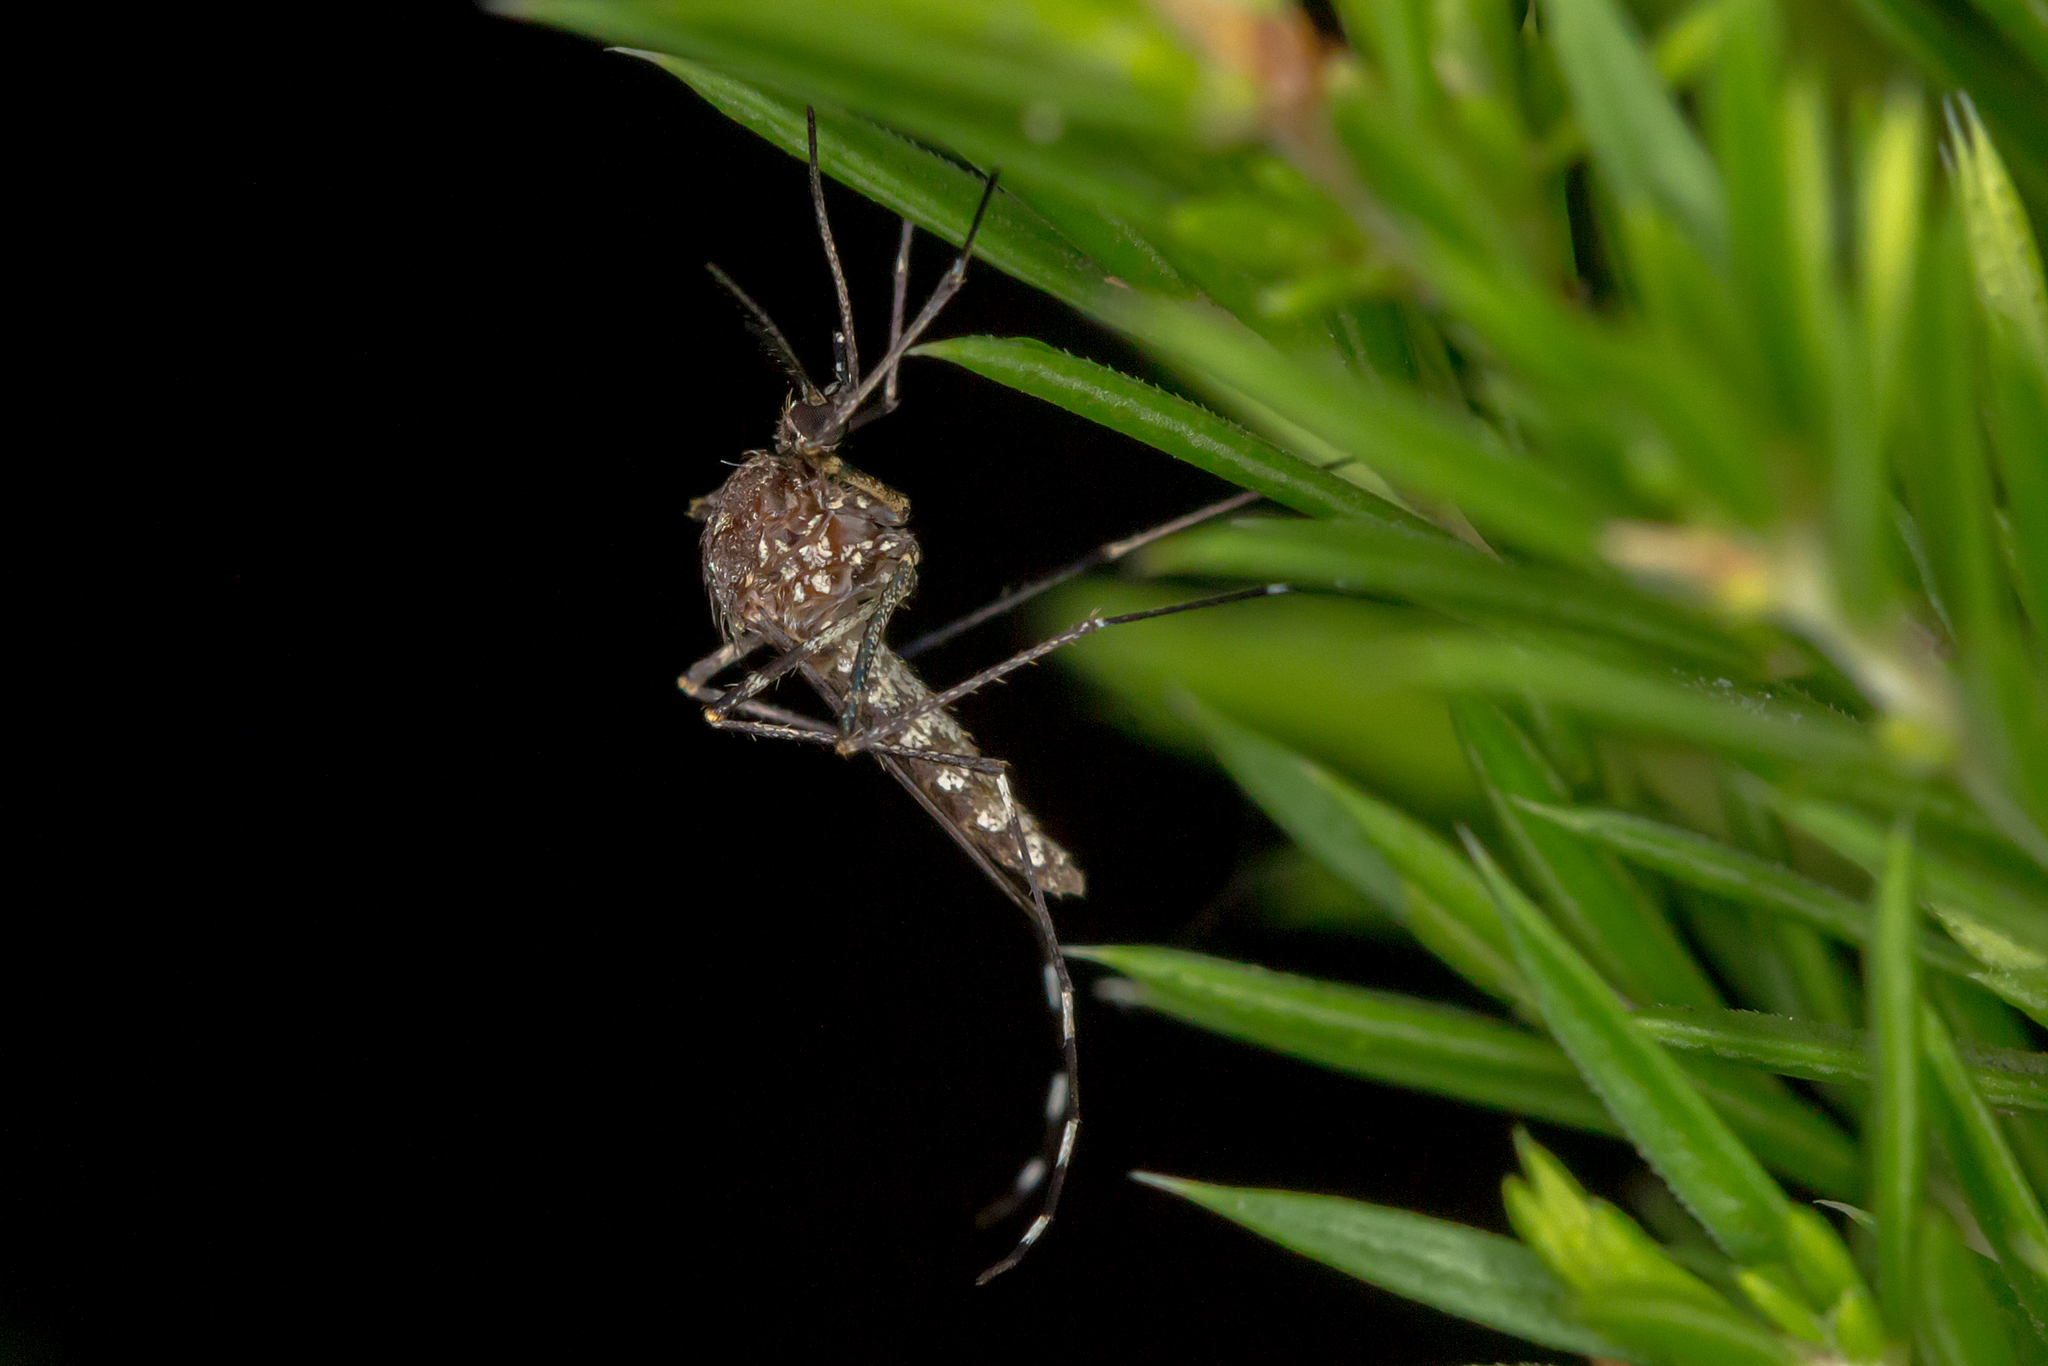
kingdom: Animalia
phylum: Arthropoda
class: Insecta
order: Diptera
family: Culicidae
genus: Aedes
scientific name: Aedes alboannulatus
